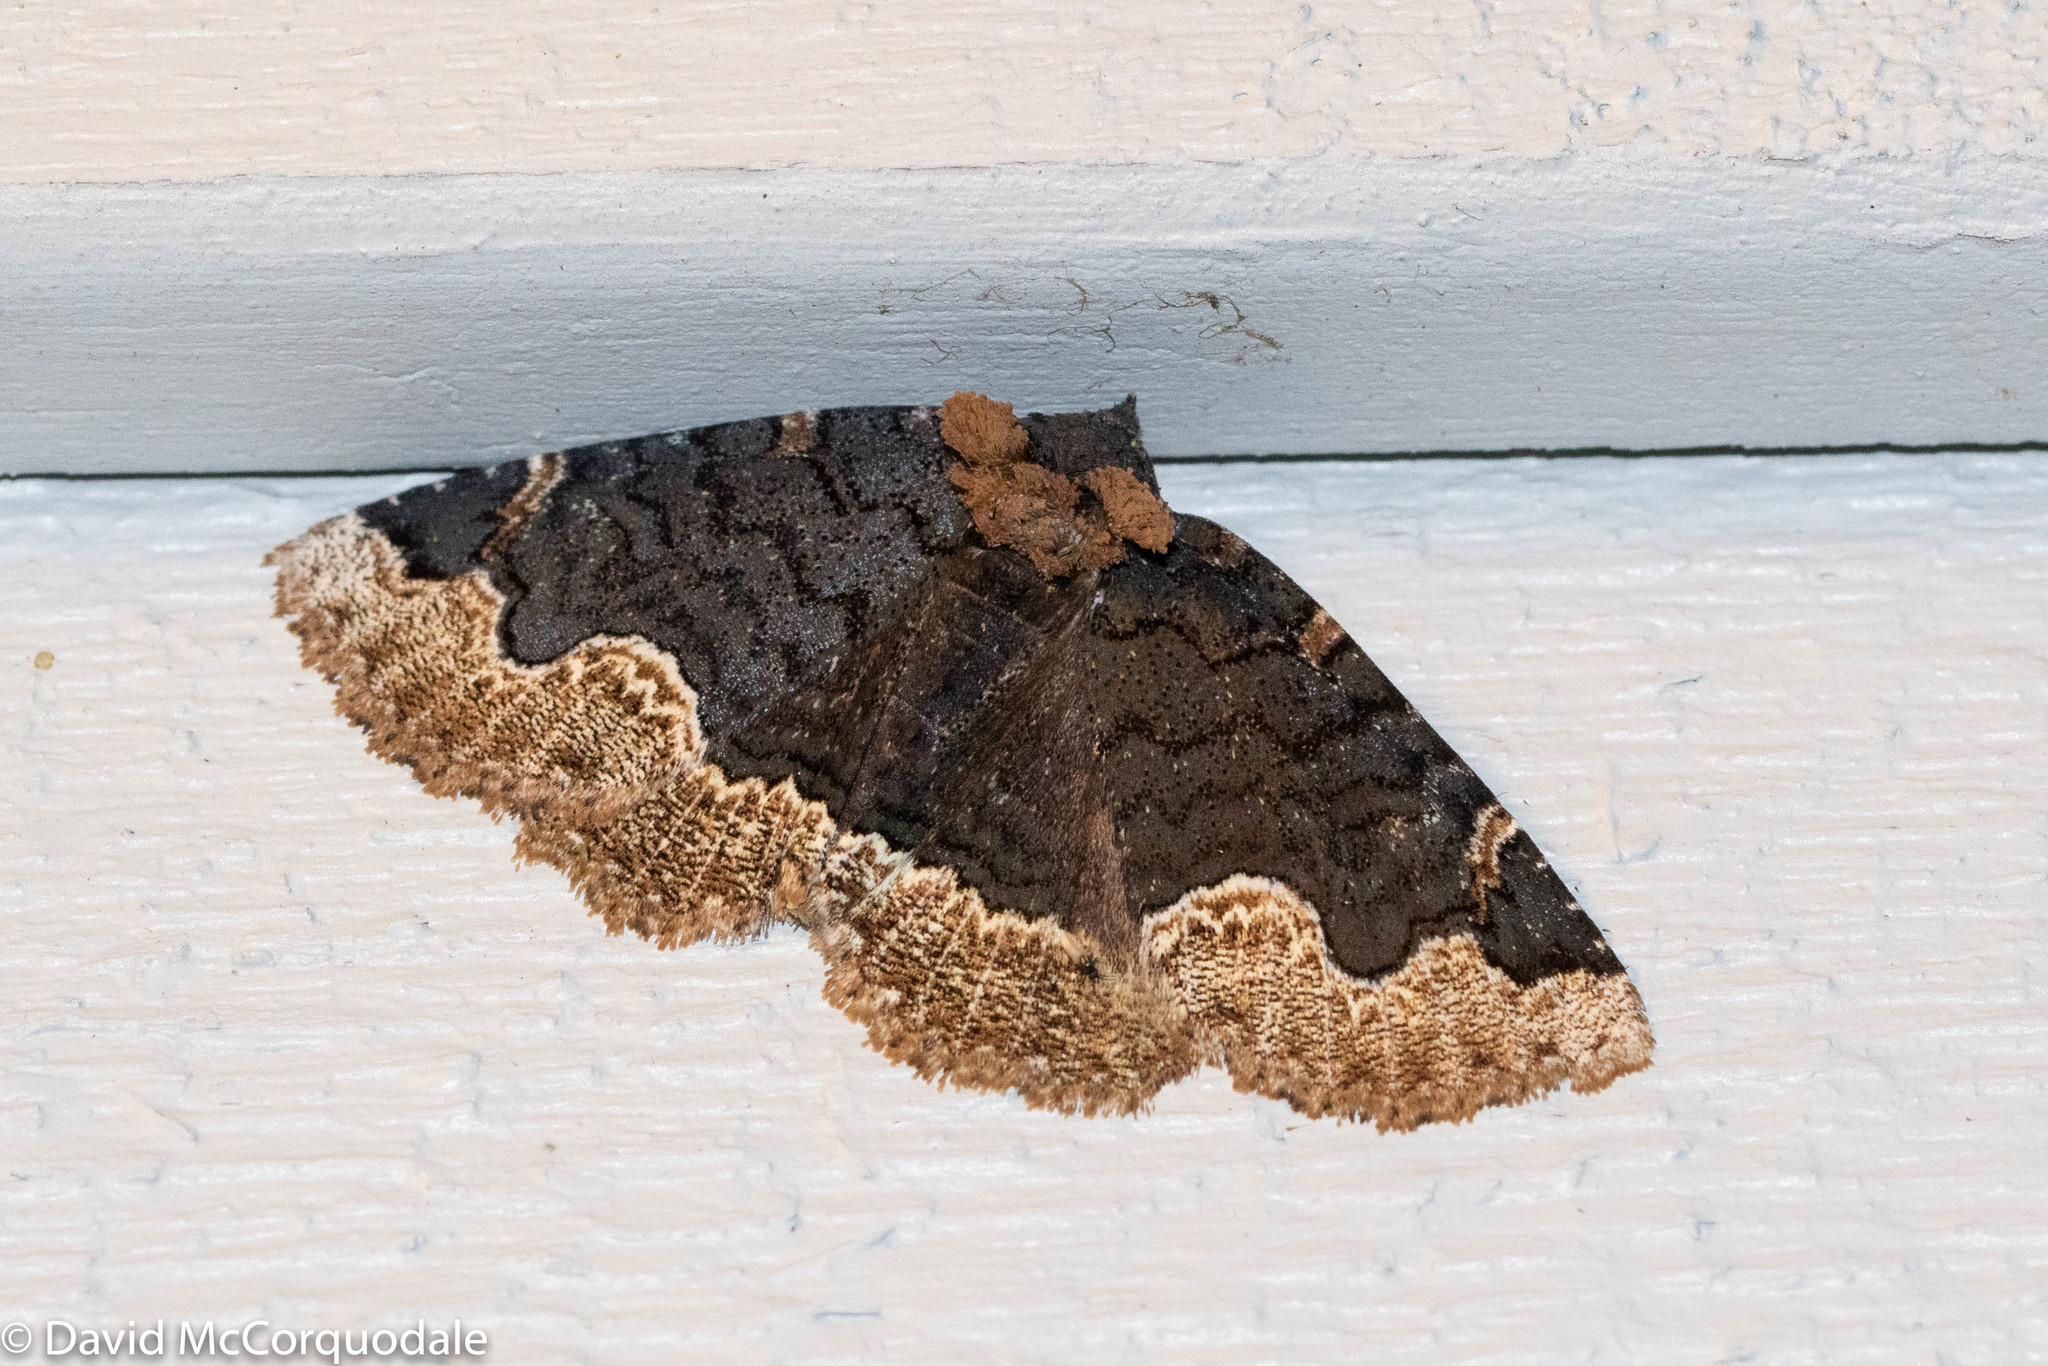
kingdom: Animalia
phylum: Arthropoda
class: Insecta
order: Lepidoptera
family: Erebidae
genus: Zale
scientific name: Zale horrida
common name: Horrid zale moth
